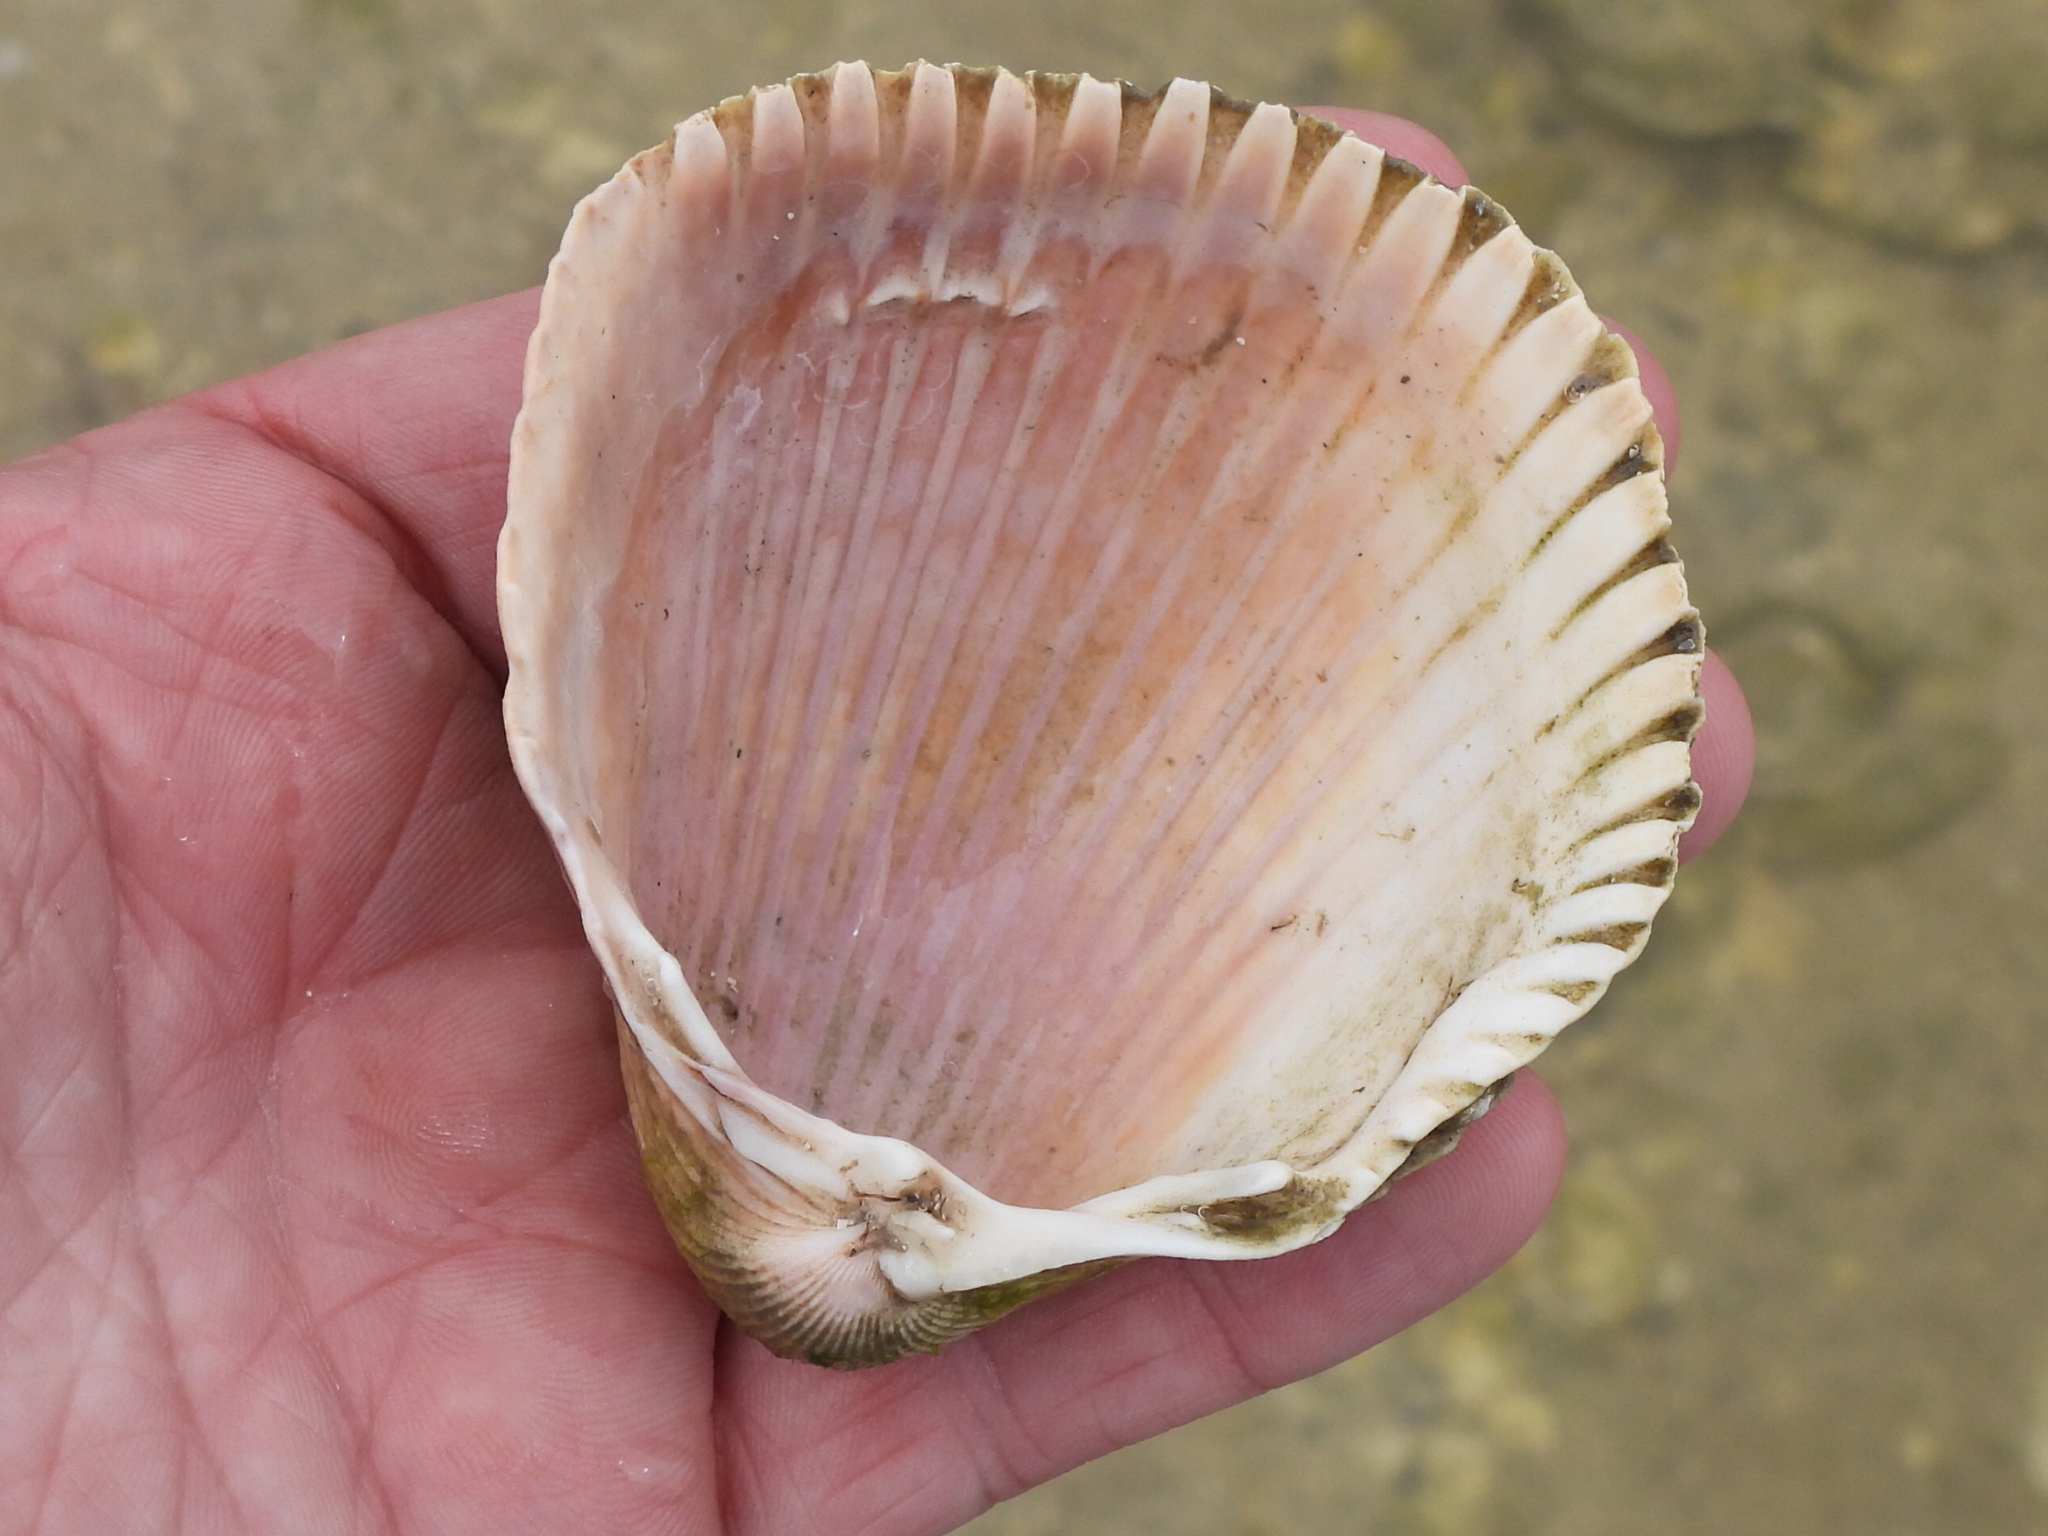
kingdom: Animalia
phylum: Mollusca
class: Bivalvia
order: Cardiida
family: Cardiidae
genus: Dinocardium
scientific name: Dinocardium robustum
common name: Atlantic giant cockle
